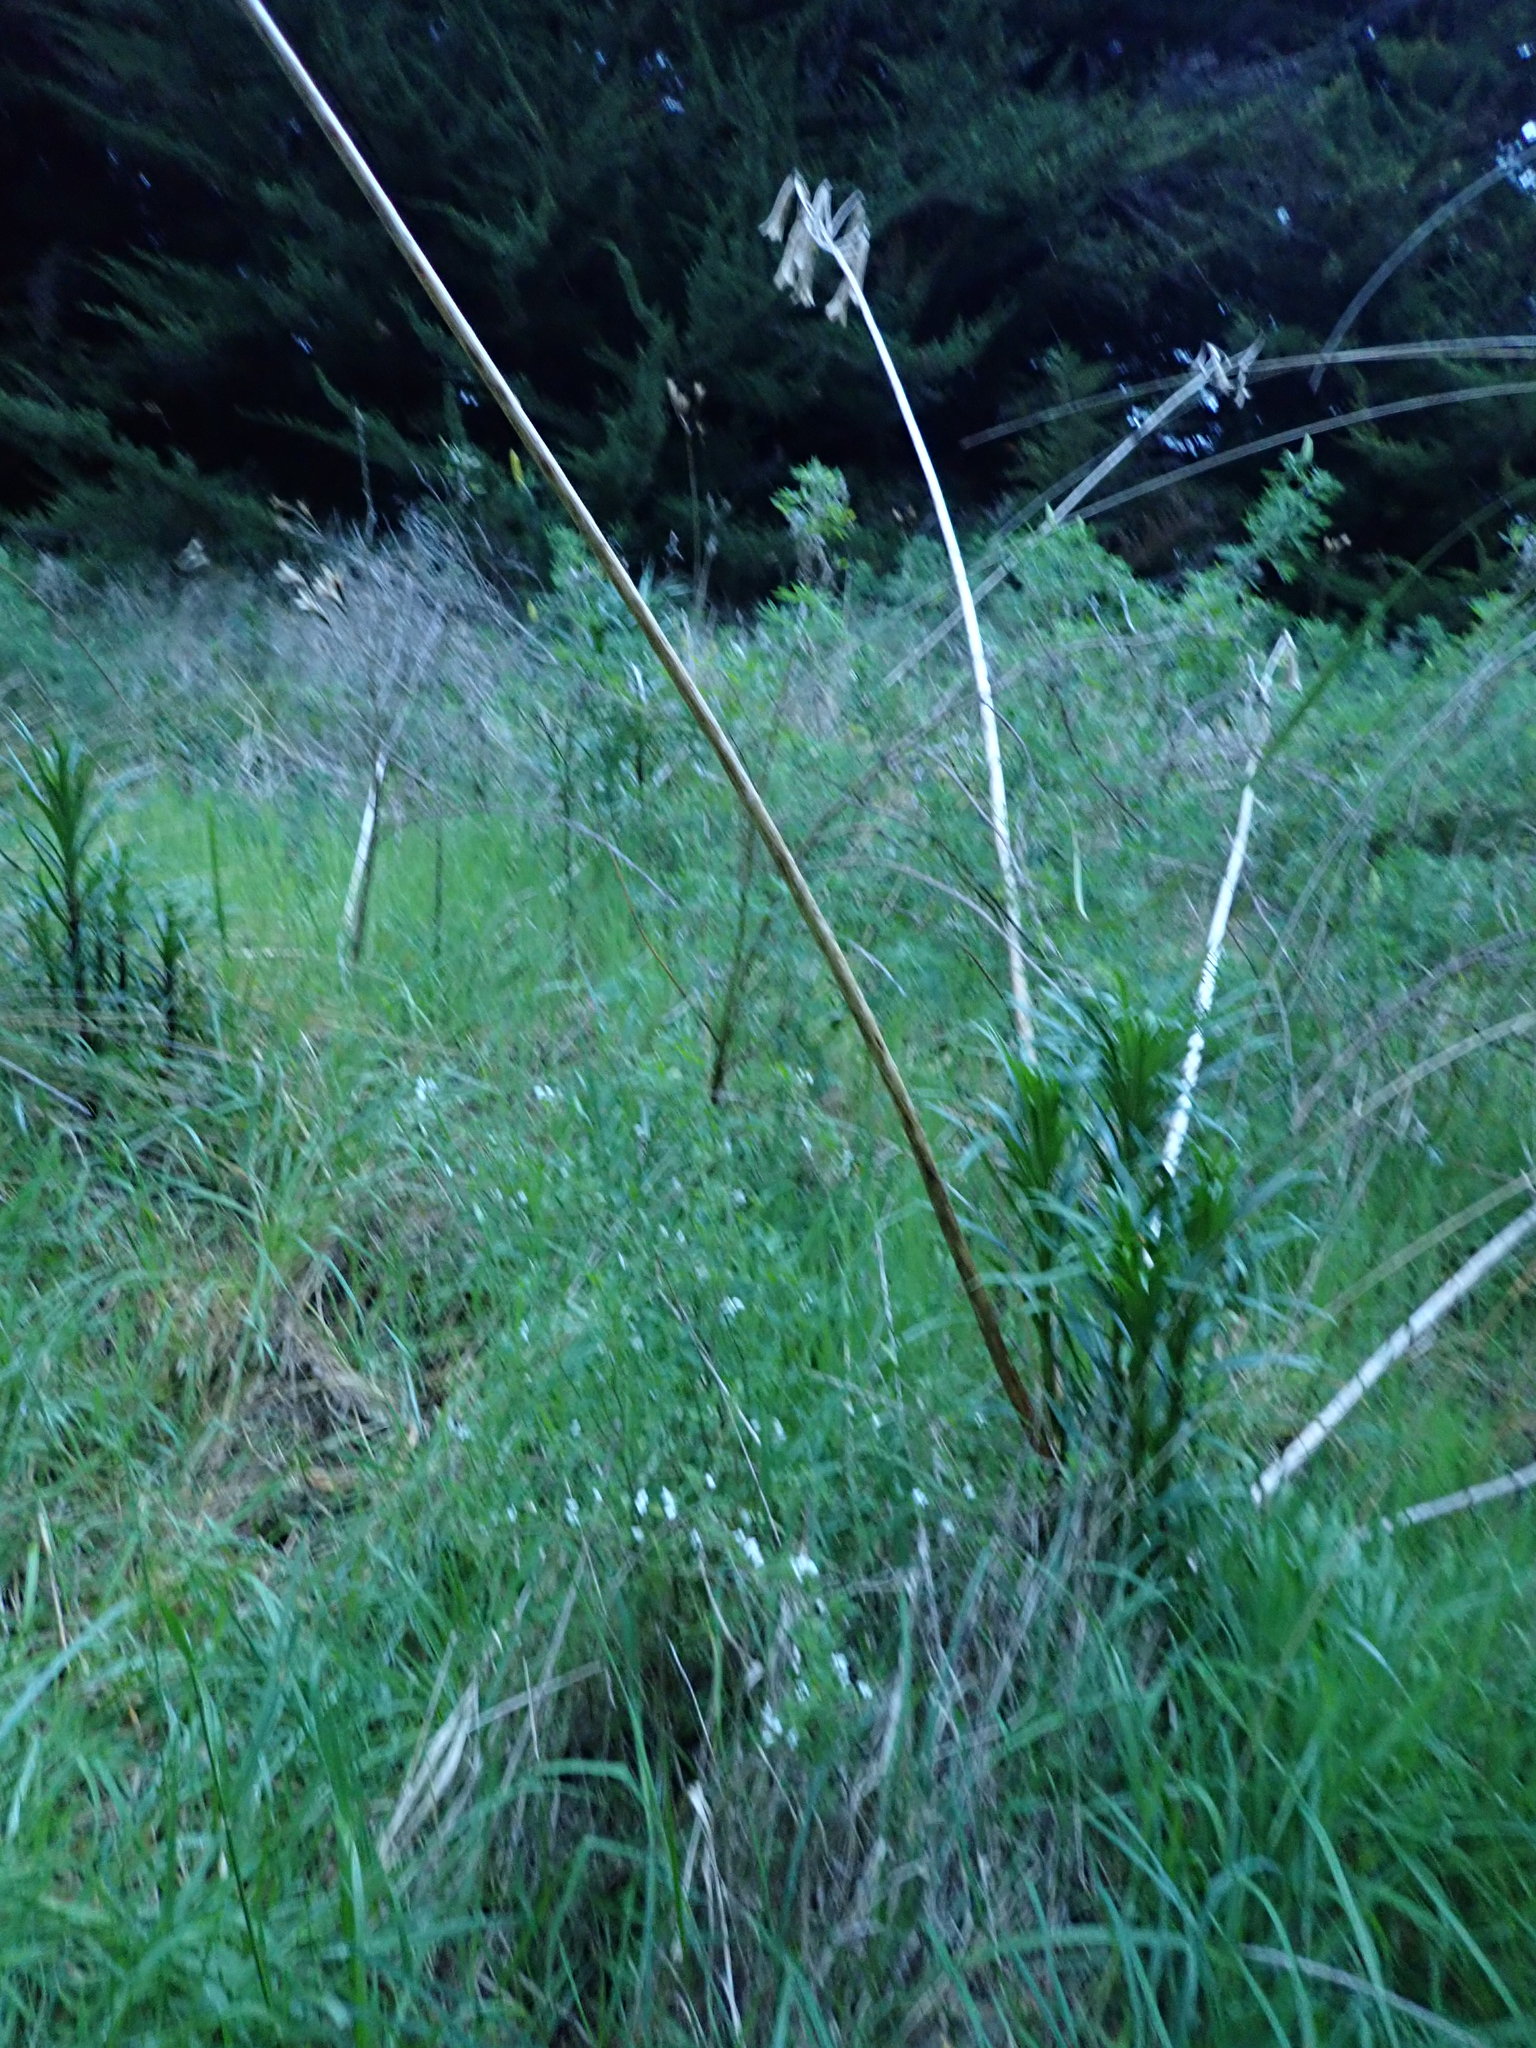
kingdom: Plantae
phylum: Tracheophyta
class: Liliopsida
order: Liliales
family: Liliaceae
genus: Lilium
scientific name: Lilium formosanum
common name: Formosa lily
